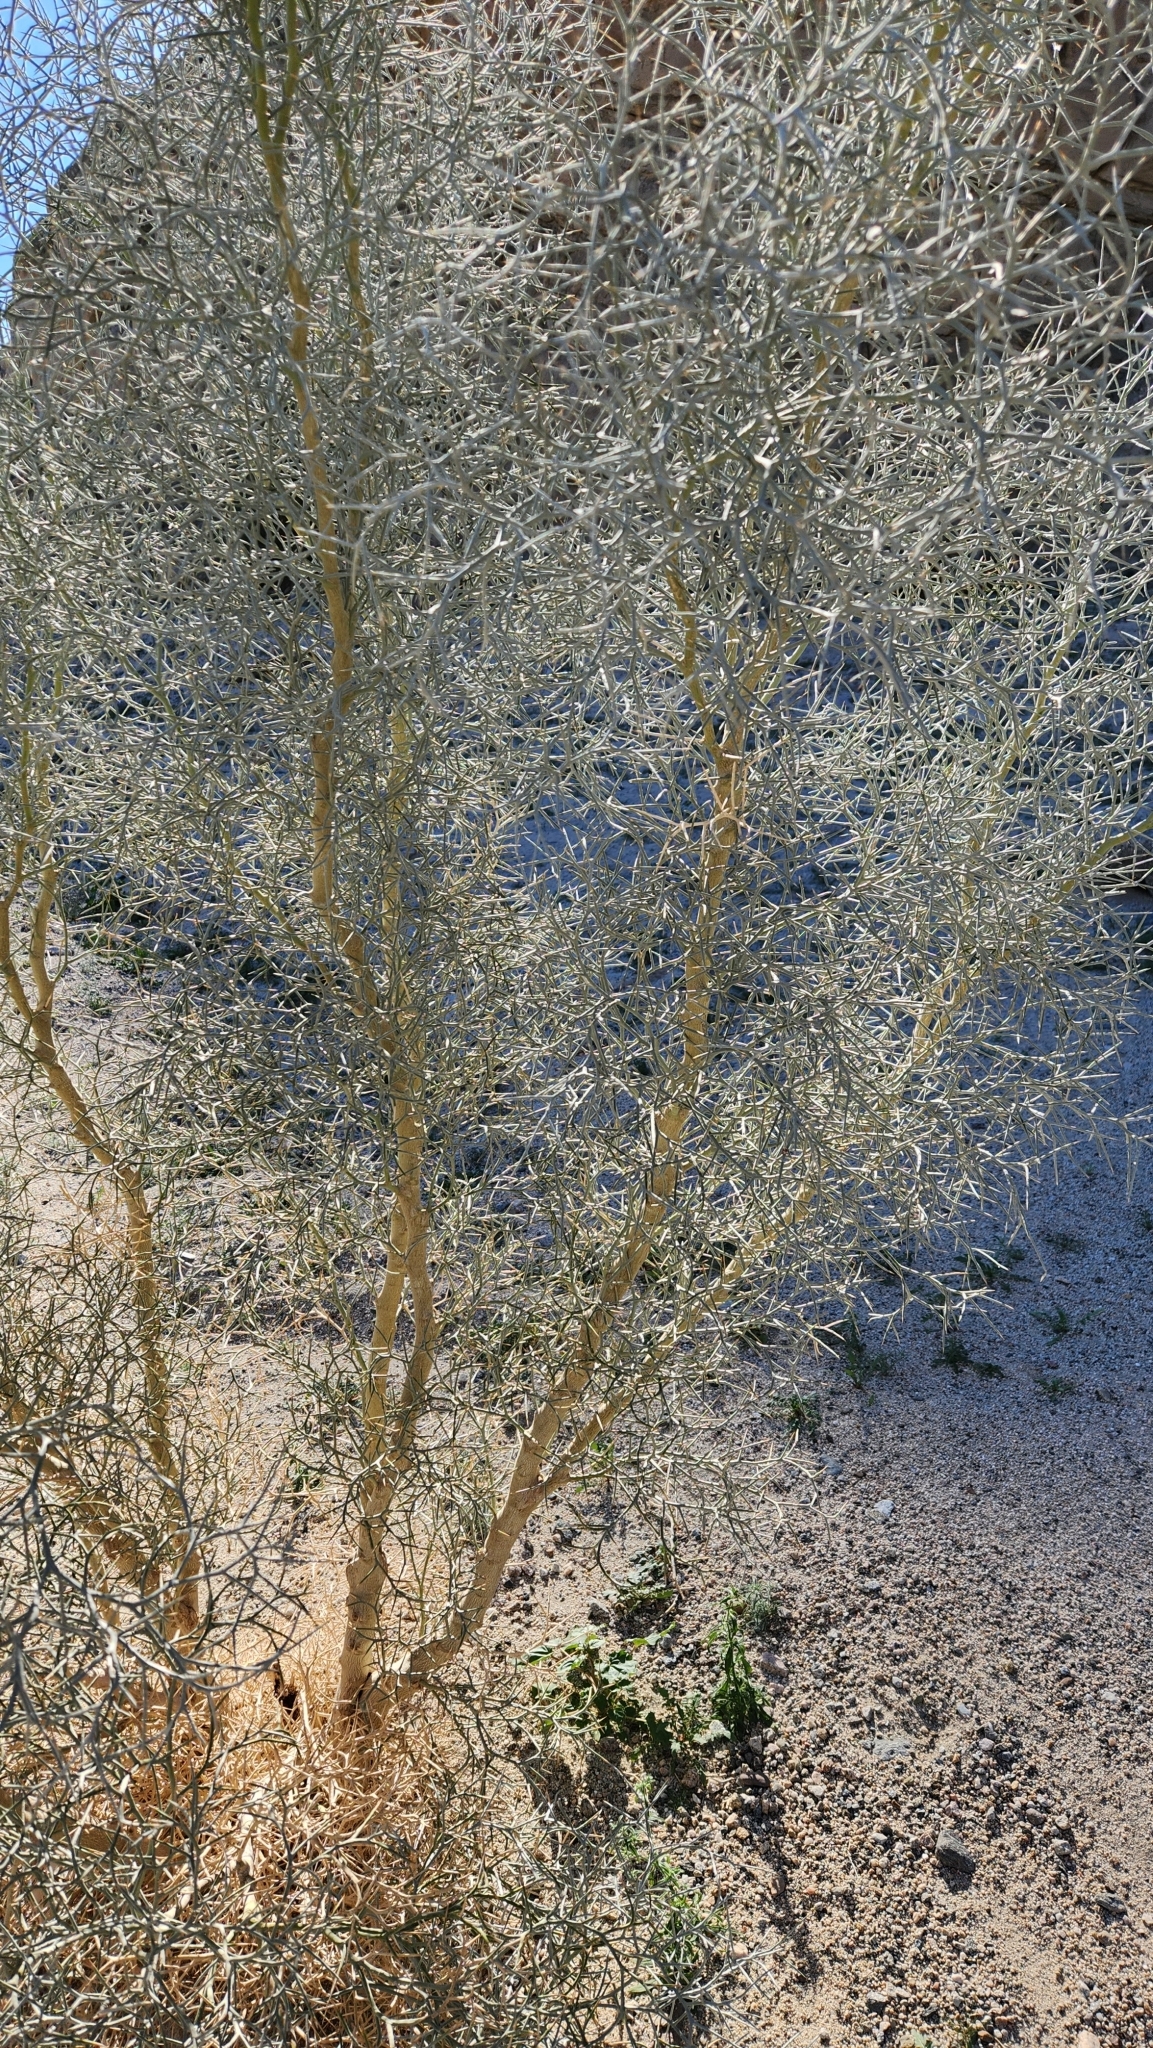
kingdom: Plantae
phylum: Tracheophyta
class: Magnoliopsida
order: Fabales
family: Fabaceae
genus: Psorothamnus
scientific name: Psorothamnus spinosus
